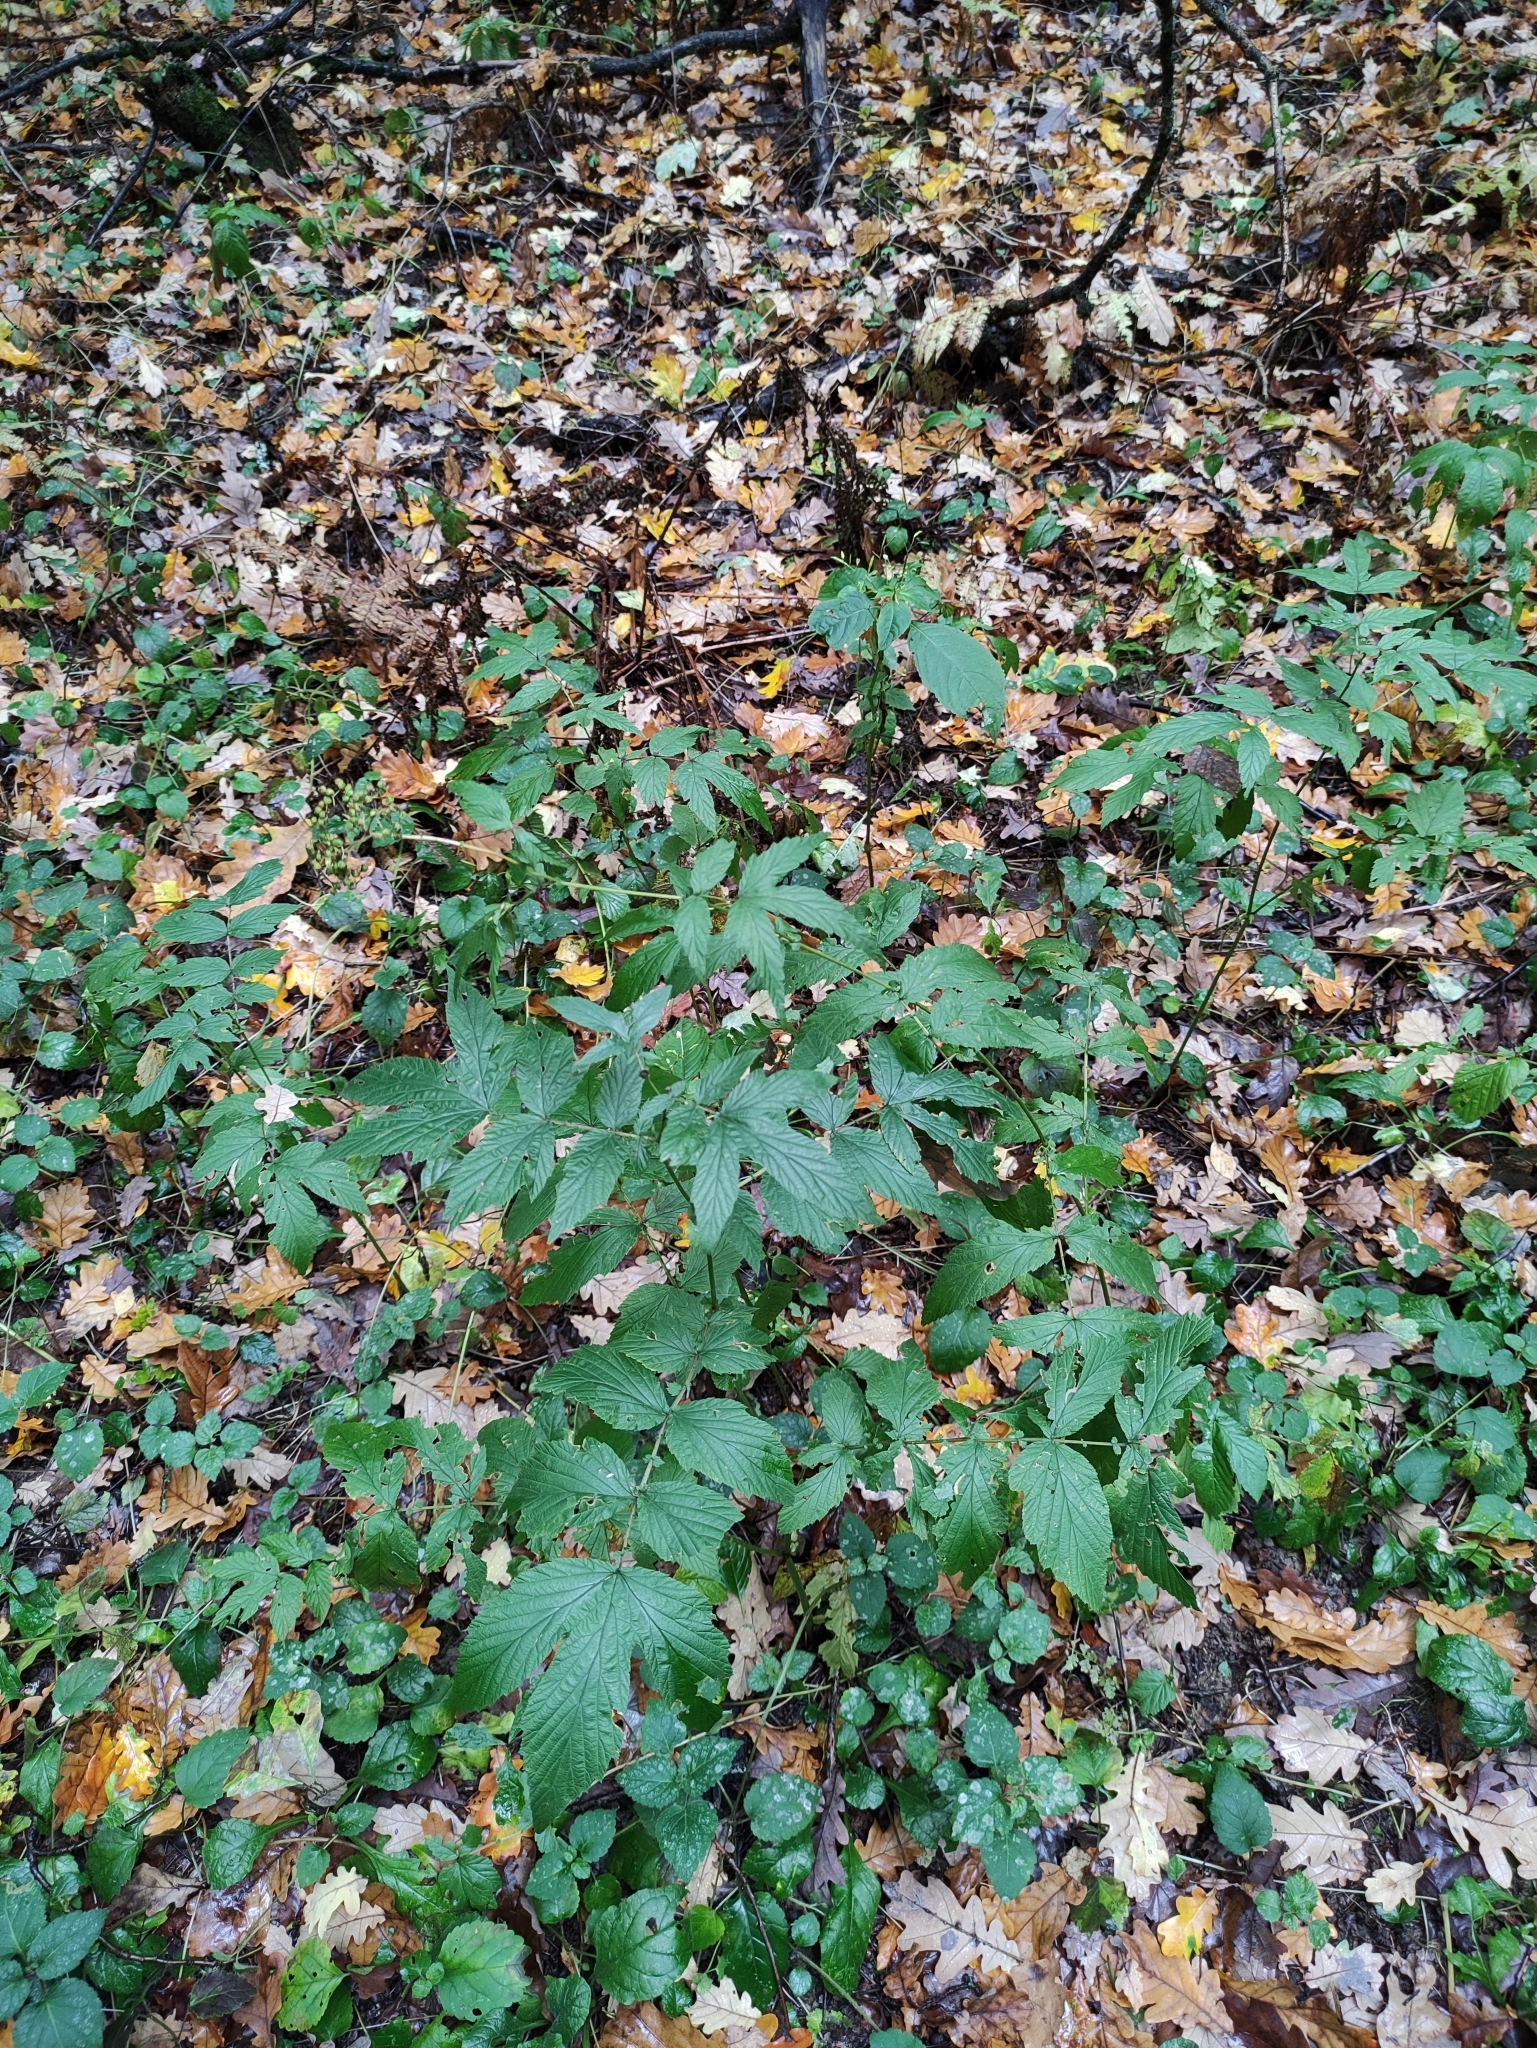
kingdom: Plantae
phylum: Tracheophyta
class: Magnoliopsida
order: Rosales
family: Rosaceae
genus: Filipendula
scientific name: Filipendula ulmaria
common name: Meadowsweet
